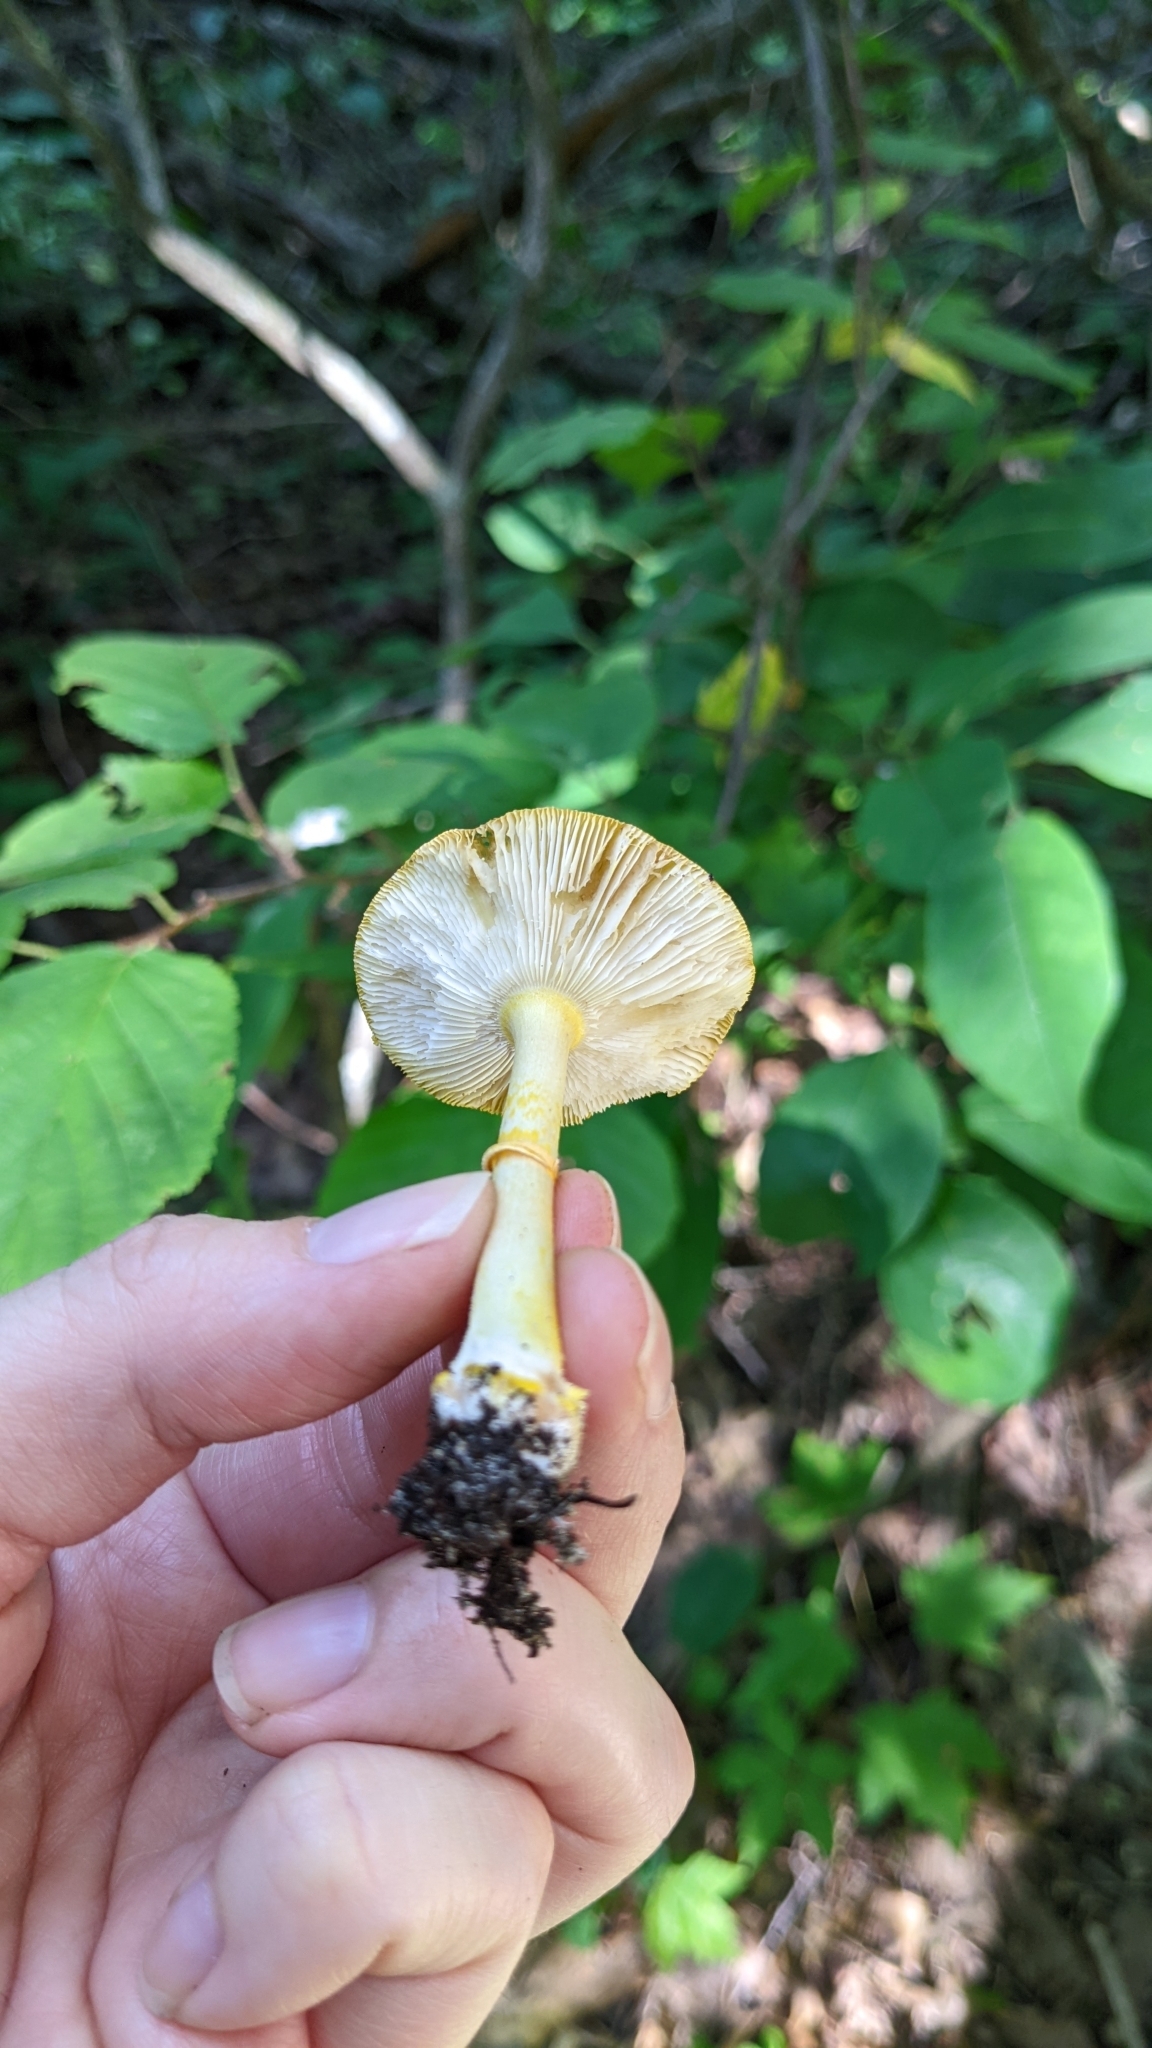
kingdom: Fungi
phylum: Basidiomycota
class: Agaricomycetes
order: Agaricales
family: Amanitaceae
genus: Amanita
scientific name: Amanita flavoconia
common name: Yellow patches
